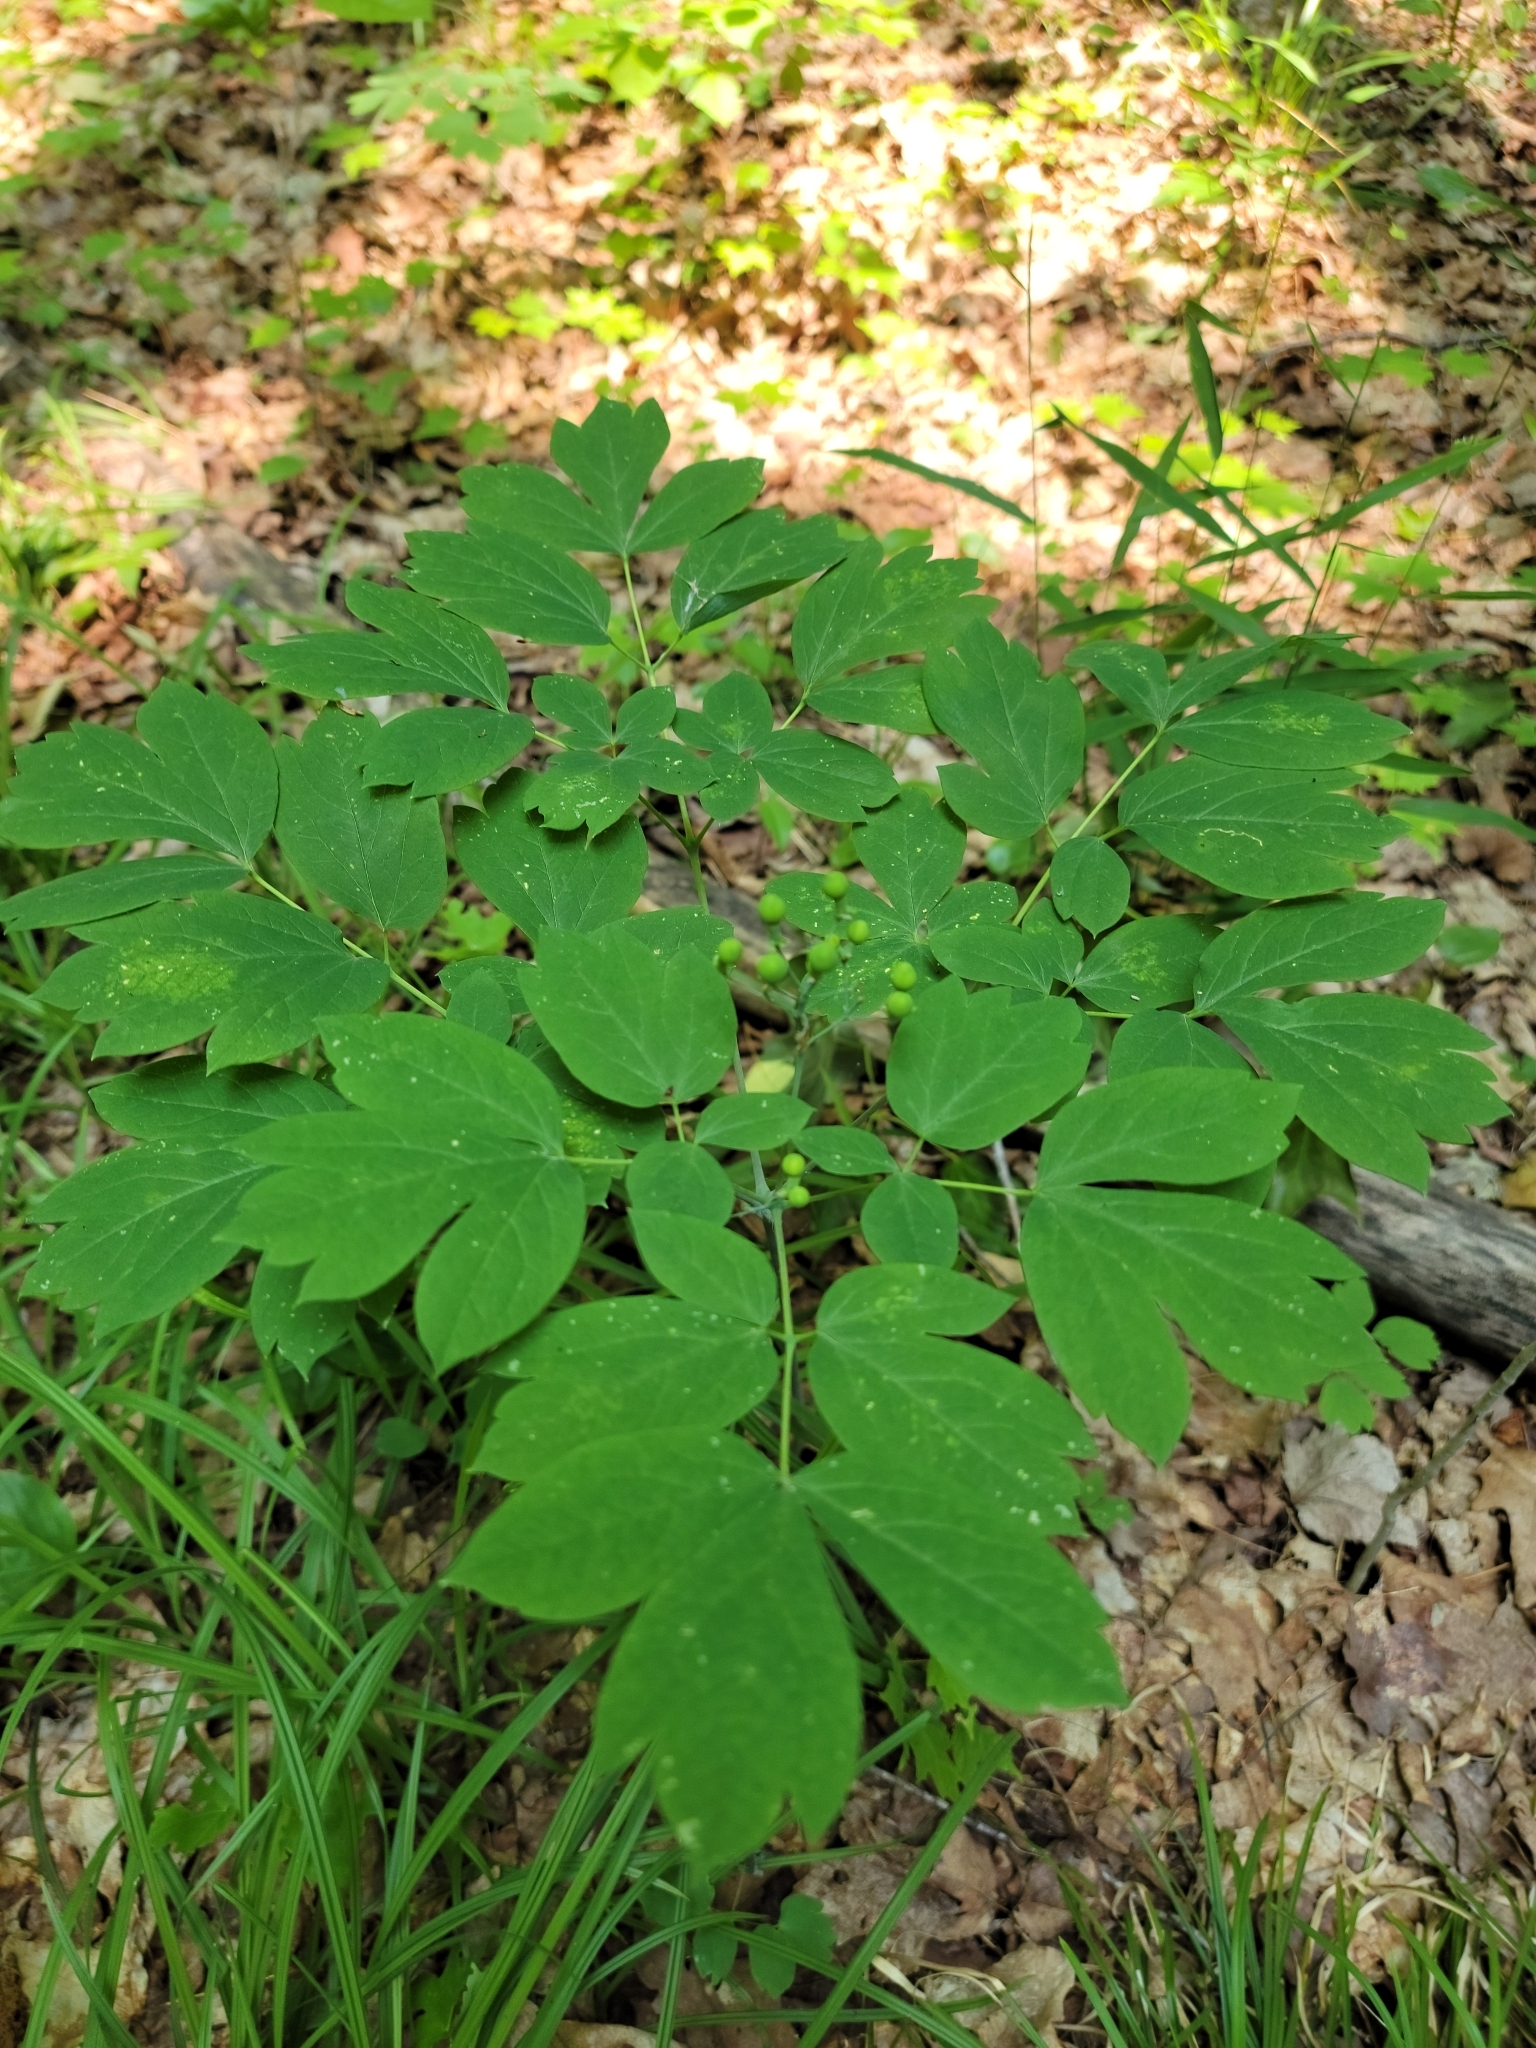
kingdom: Plantae
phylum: Tracheophyta
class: Magnoliopsida
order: Ranunculales
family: Berberidaceae
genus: Caulophyllum
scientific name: Caulophyllum thalictroides
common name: Blue cohosh
